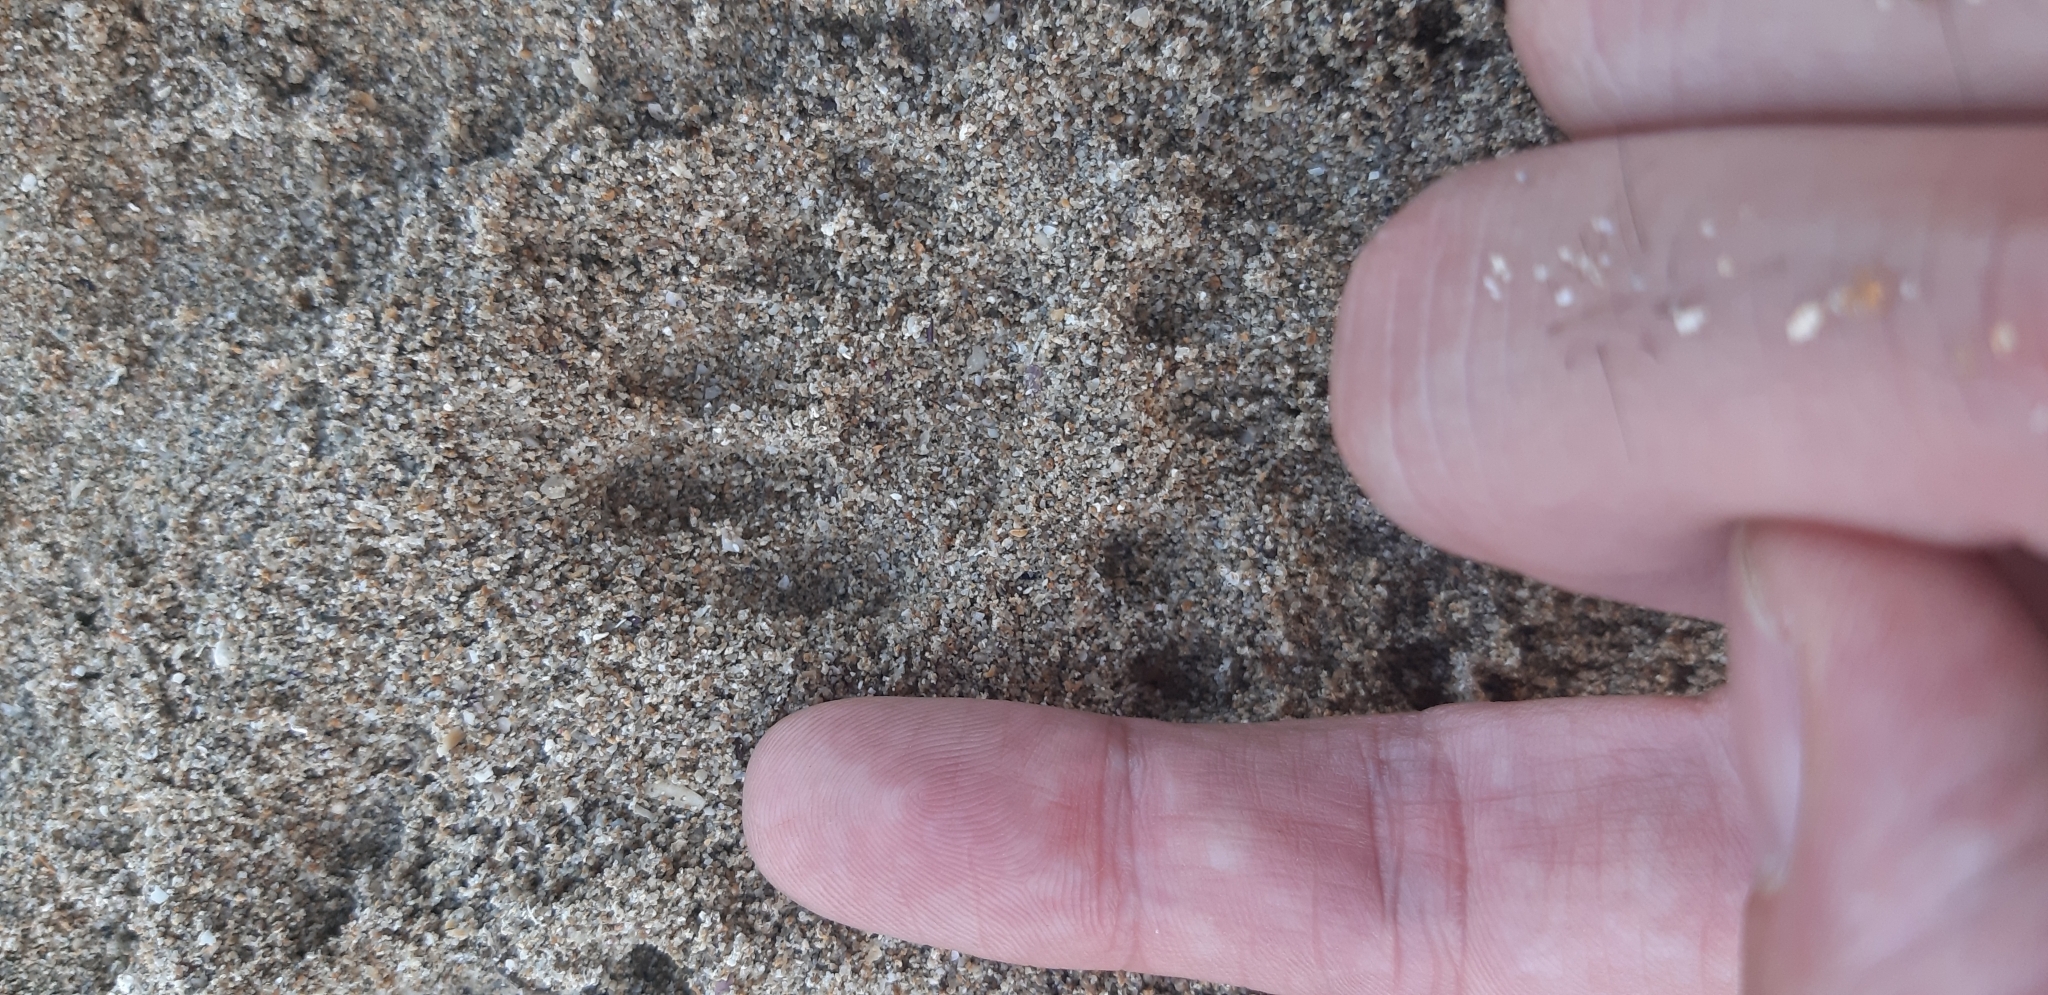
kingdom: Animalia
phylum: Chordata
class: Mammalia
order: Carnivora
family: Mustelidae
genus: Martes
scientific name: Martes foina
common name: Beech marten
